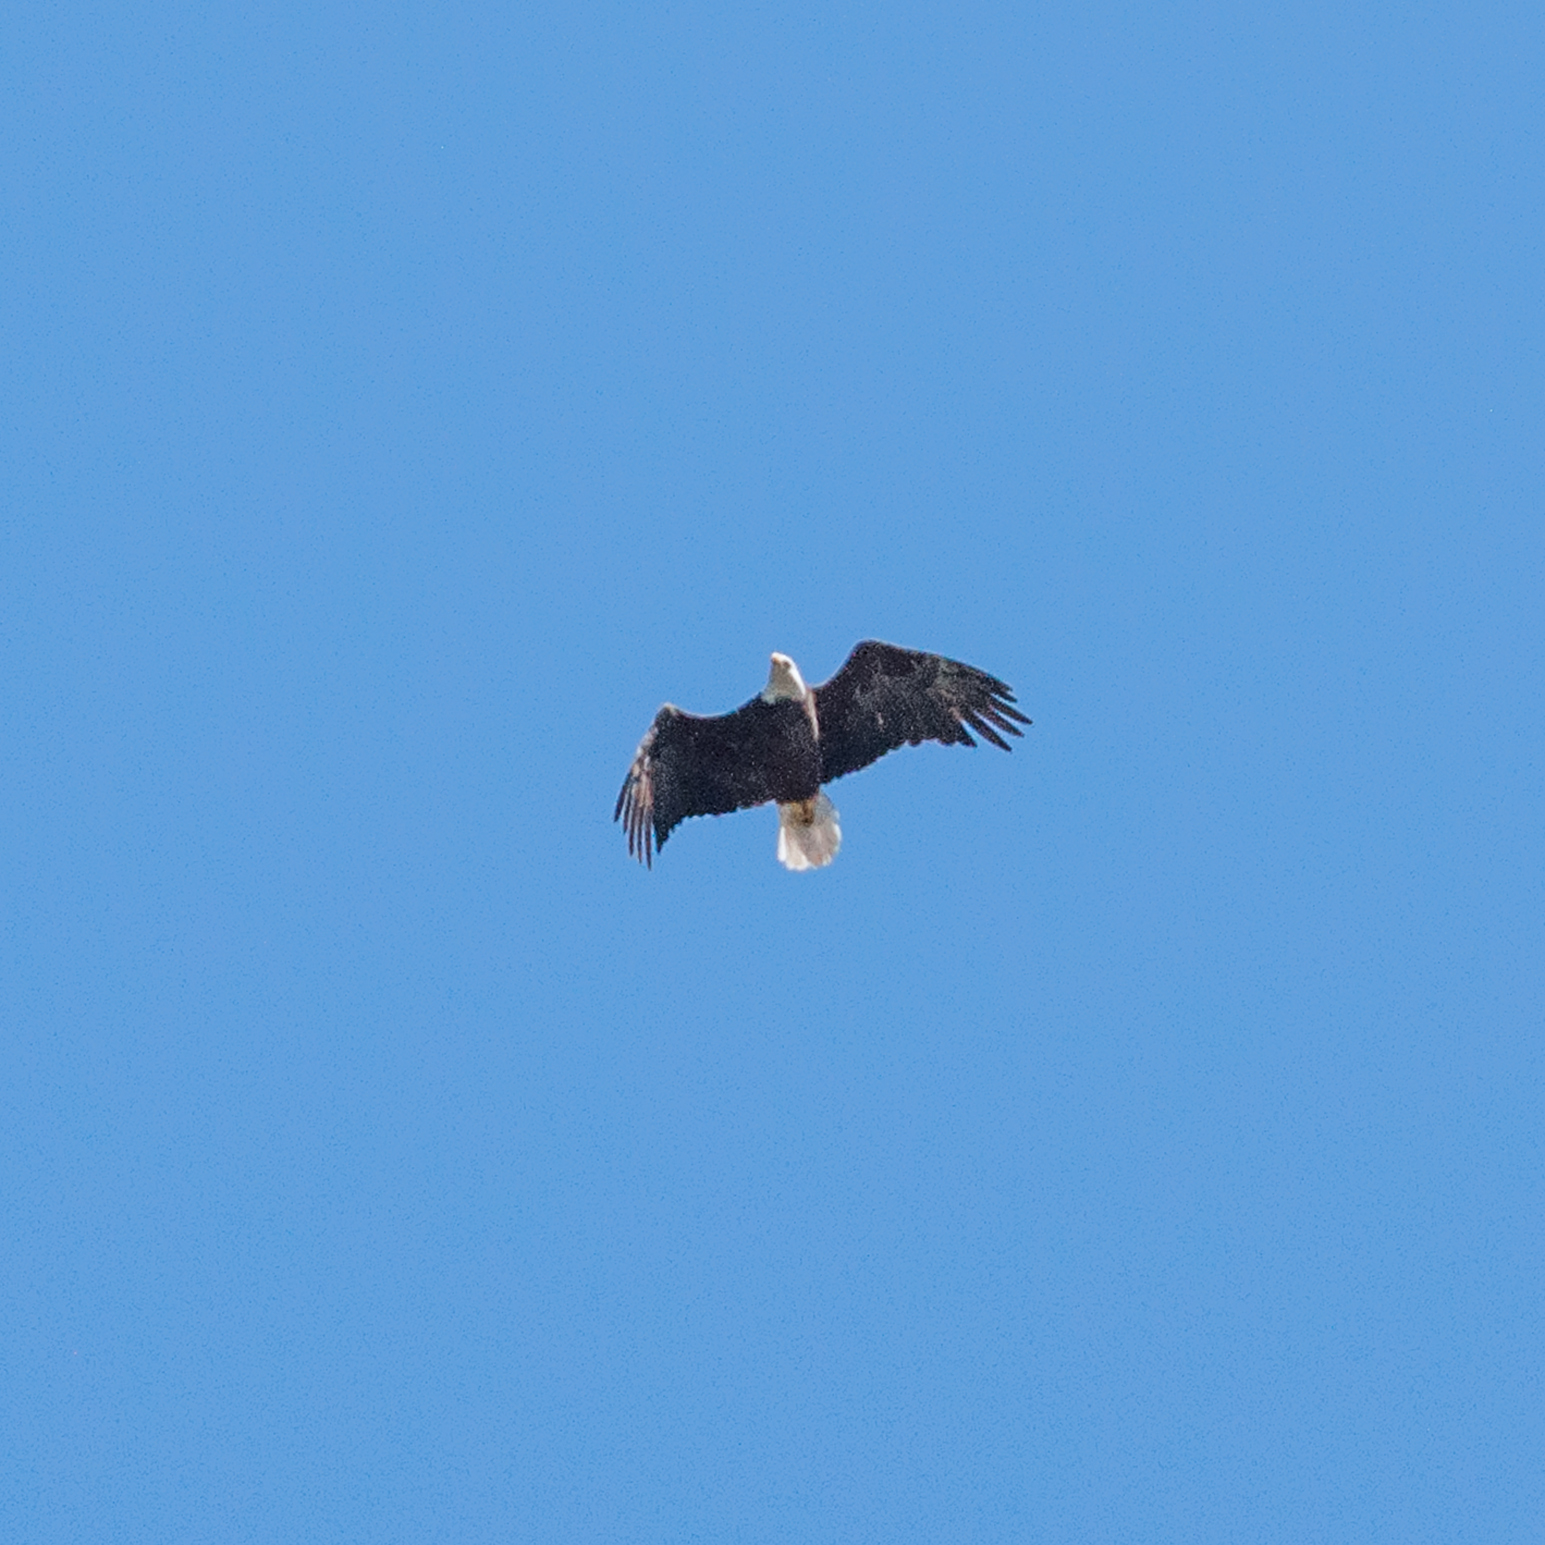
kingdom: Animalia
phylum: Chordata
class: Aves
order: Accipitriformes
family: Accipitridae
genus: Haliaeetus
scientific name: Haliaeetus leucocephalus
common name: Bald eagle
